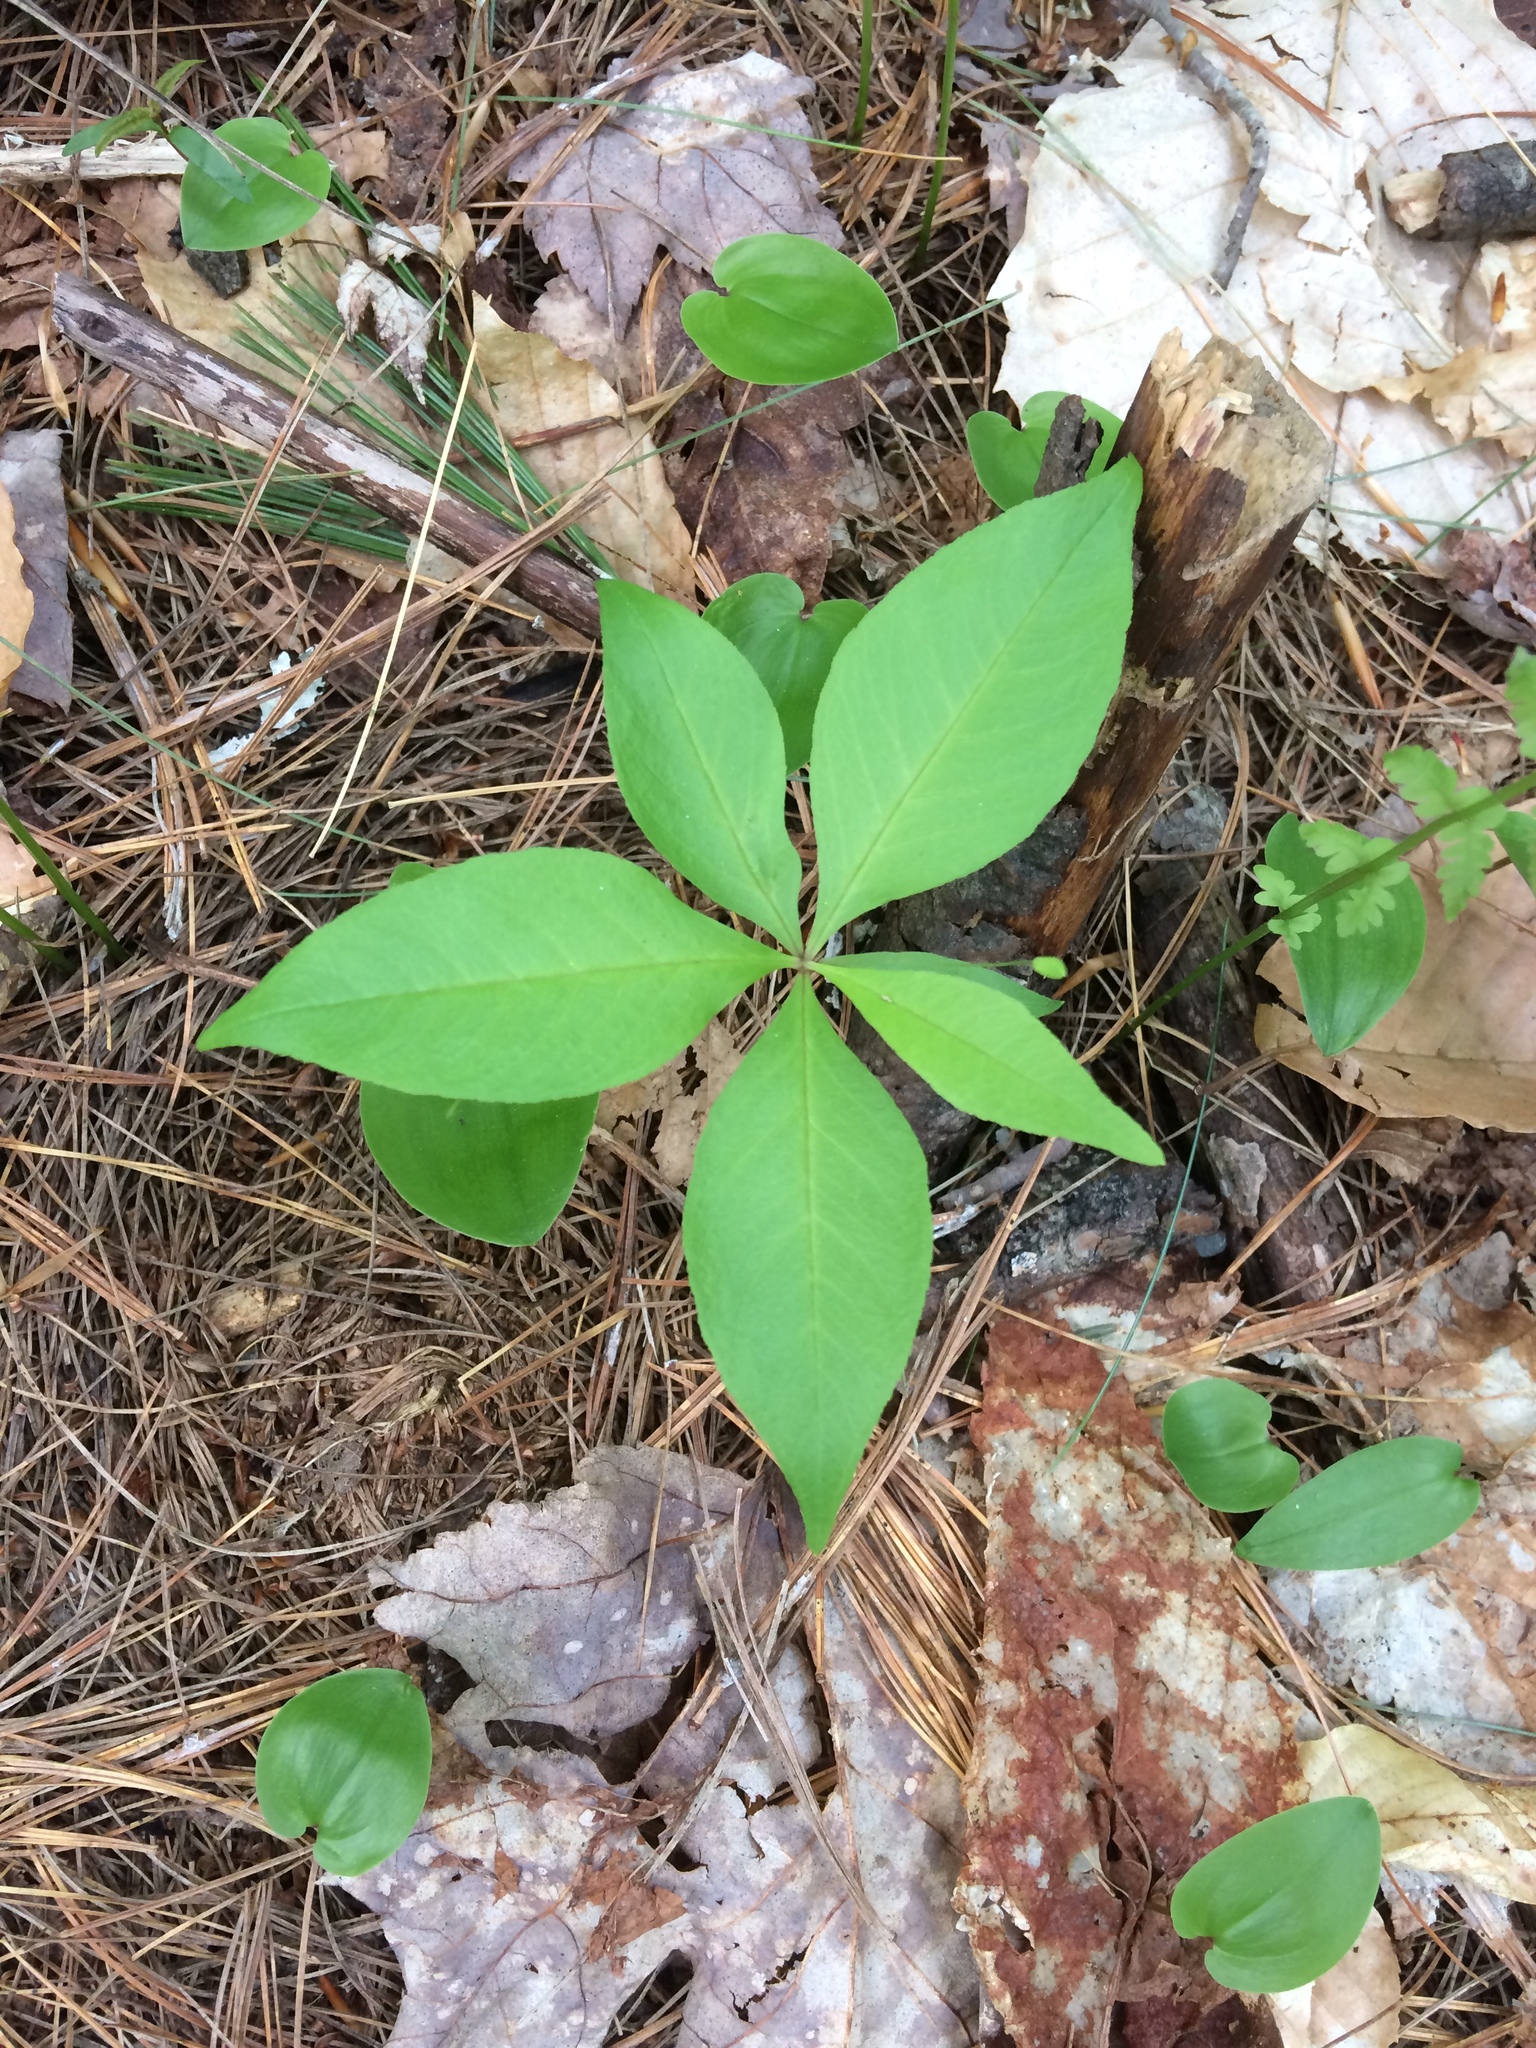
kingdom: Plantae
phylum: Tracheophyta
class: Magnoliopsida
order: Ericales
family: Primulaceae
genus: Lysimachia
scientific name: Lysimachia borealis
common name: American starflower
